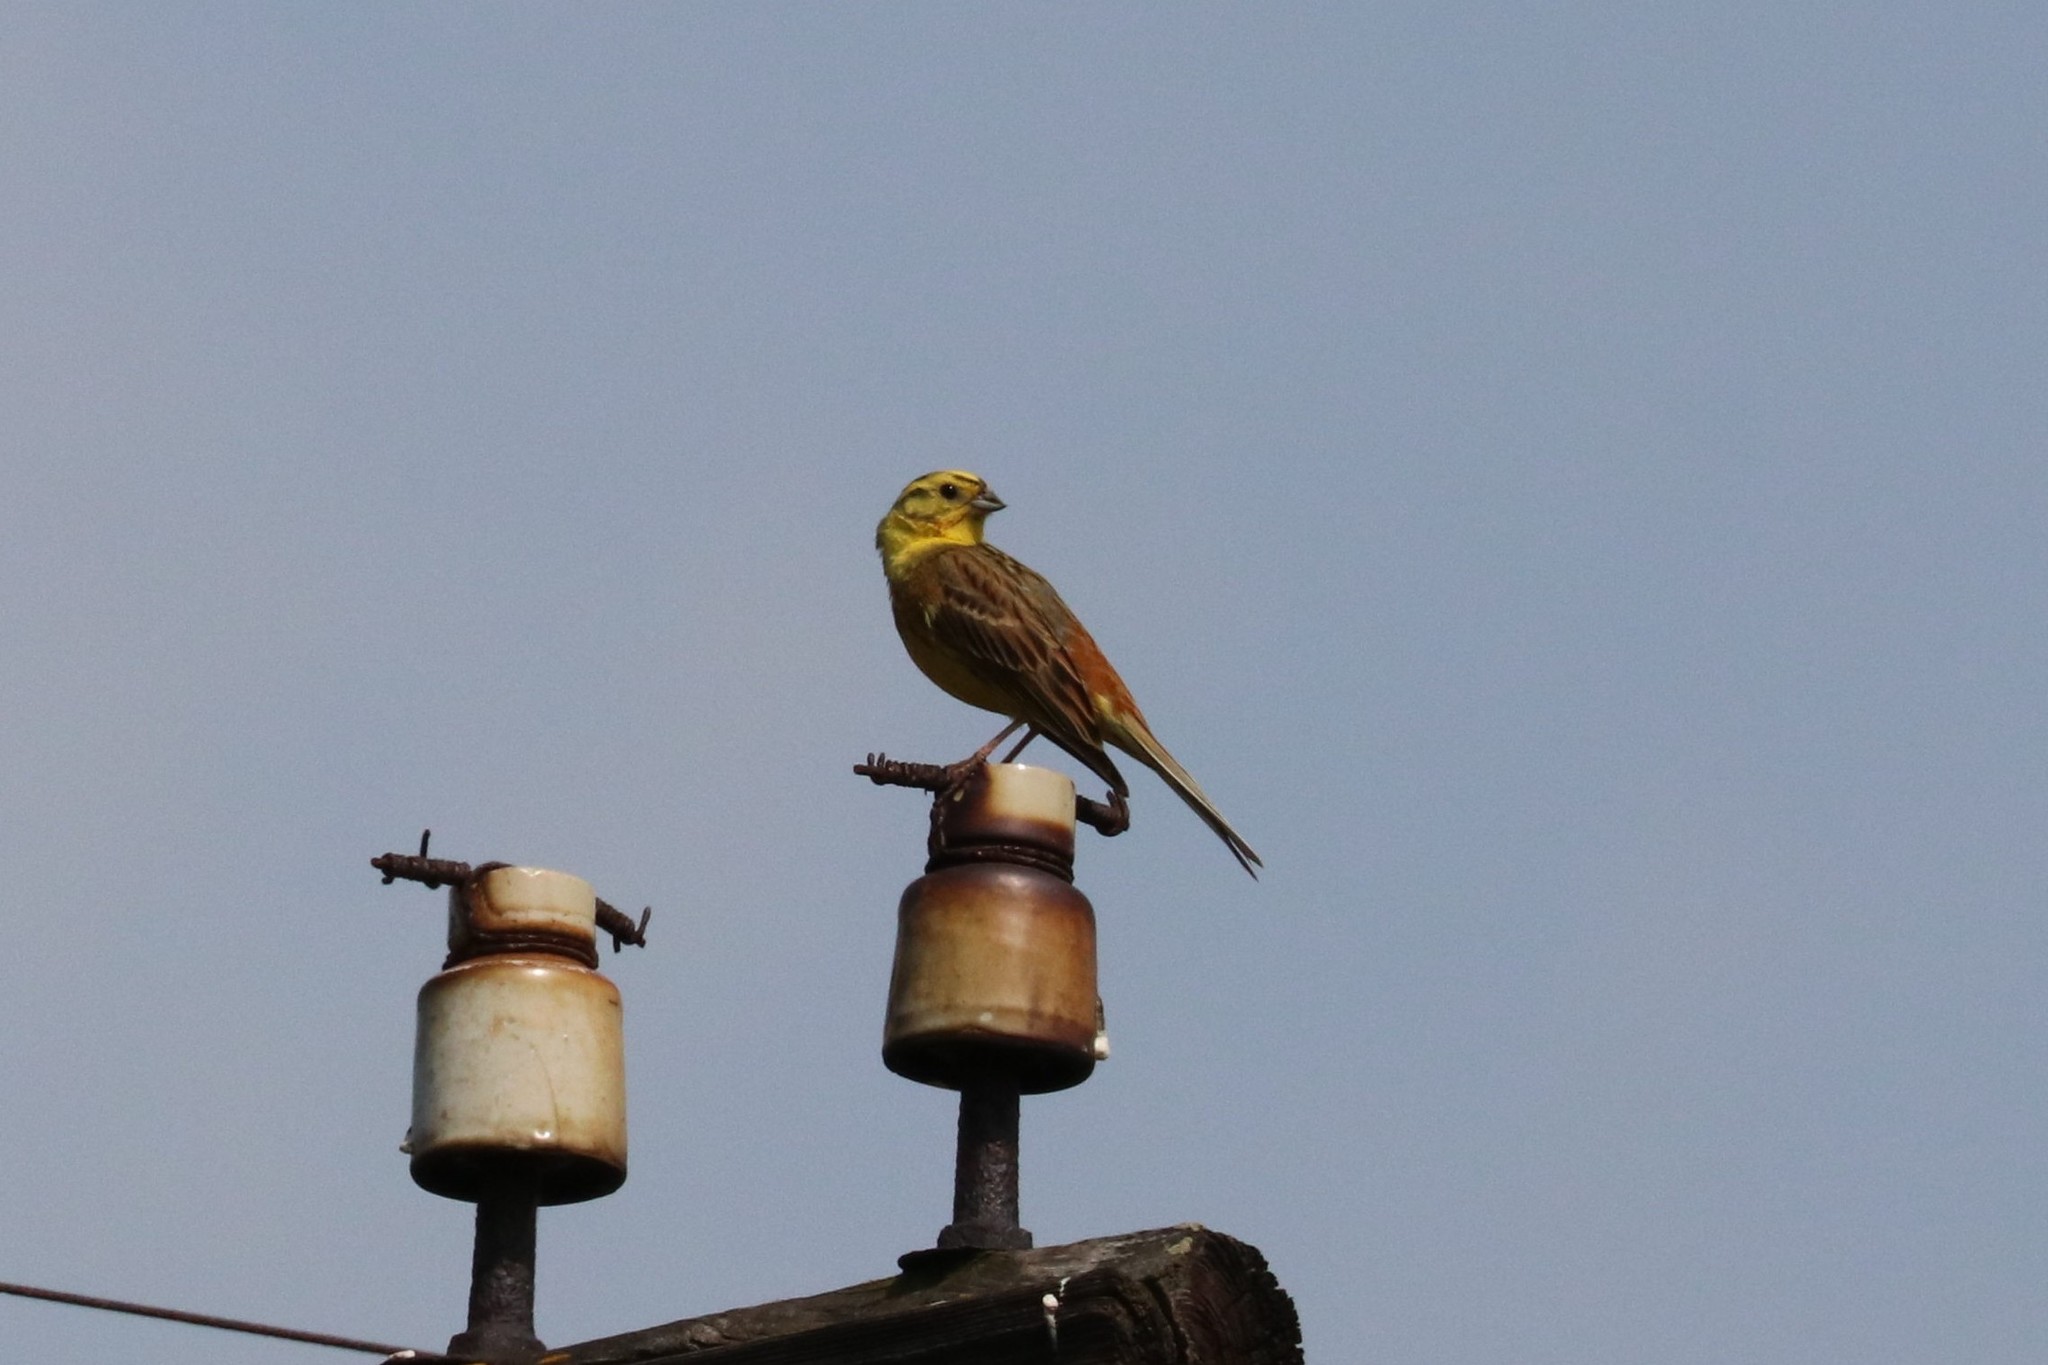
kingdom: Animalia
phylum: Chordata
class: Aves
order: Passeriformes
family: Emberizidae
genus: Emberiza
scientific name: Emberiza citrinella
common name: Yellowhammer
